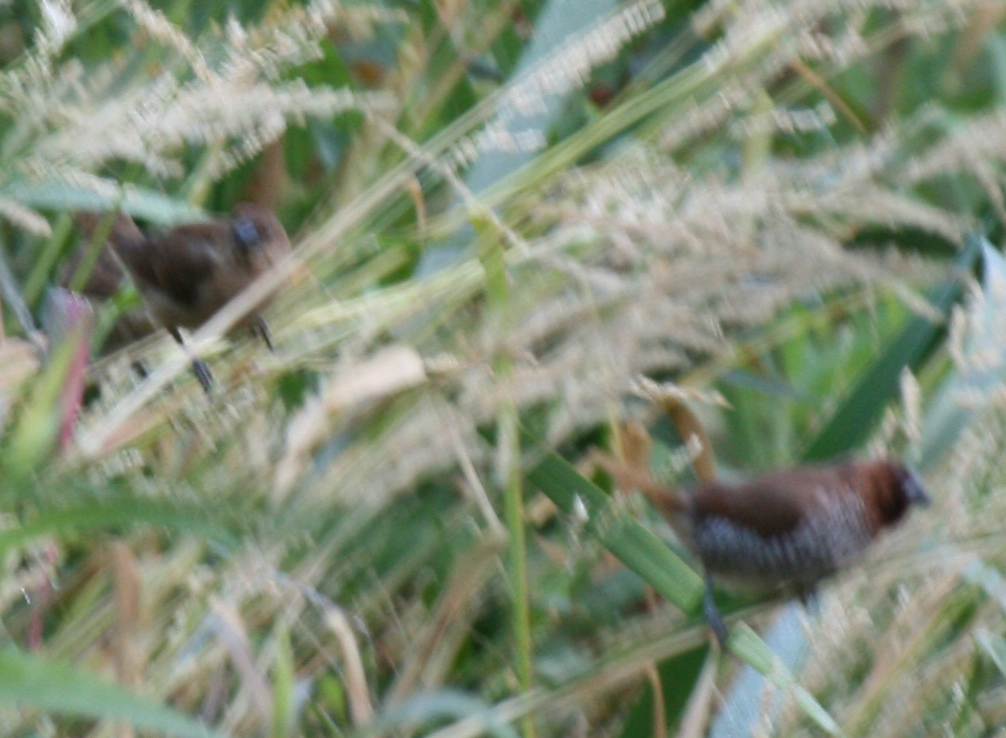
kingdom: Animalia
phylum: Chordata
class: Aves
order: Passeriformes
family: Estrildidae
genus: Lonchura
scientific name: Lonchura punctulata
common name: Scaly-breasted munia
